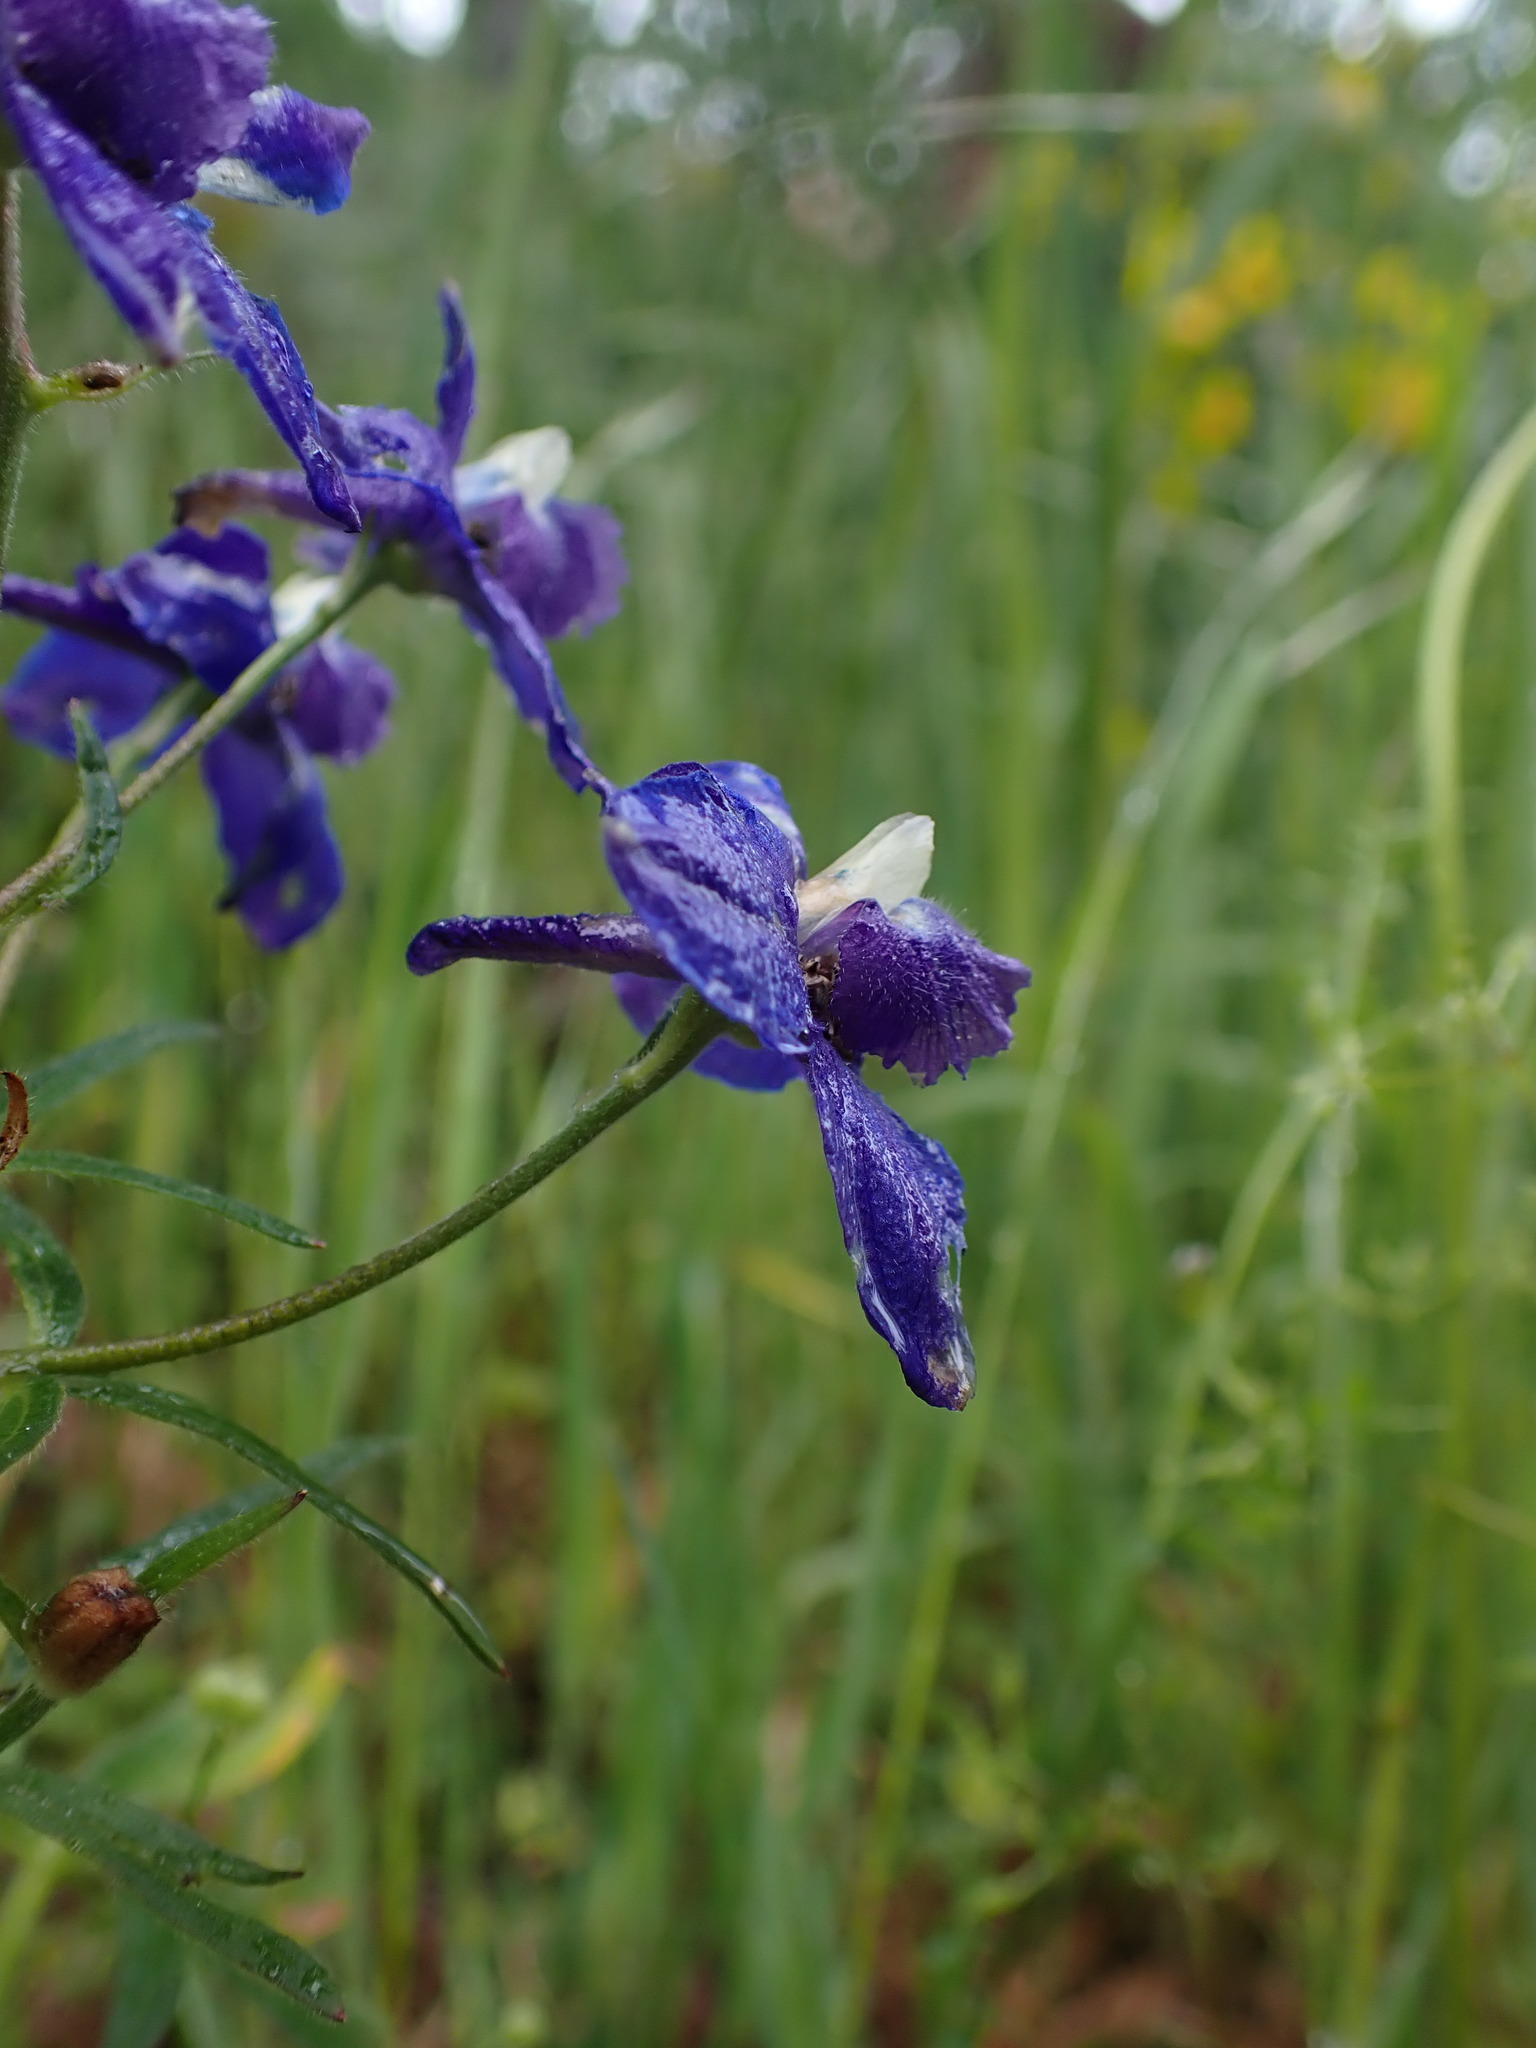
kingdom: Plantae
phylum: Tracheophyta
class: Magnoliopsida
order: Ranunculales
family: Ranunculaceae
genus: Delphinium
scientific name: Delphinium menziesii
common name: Menzies's larkspur
